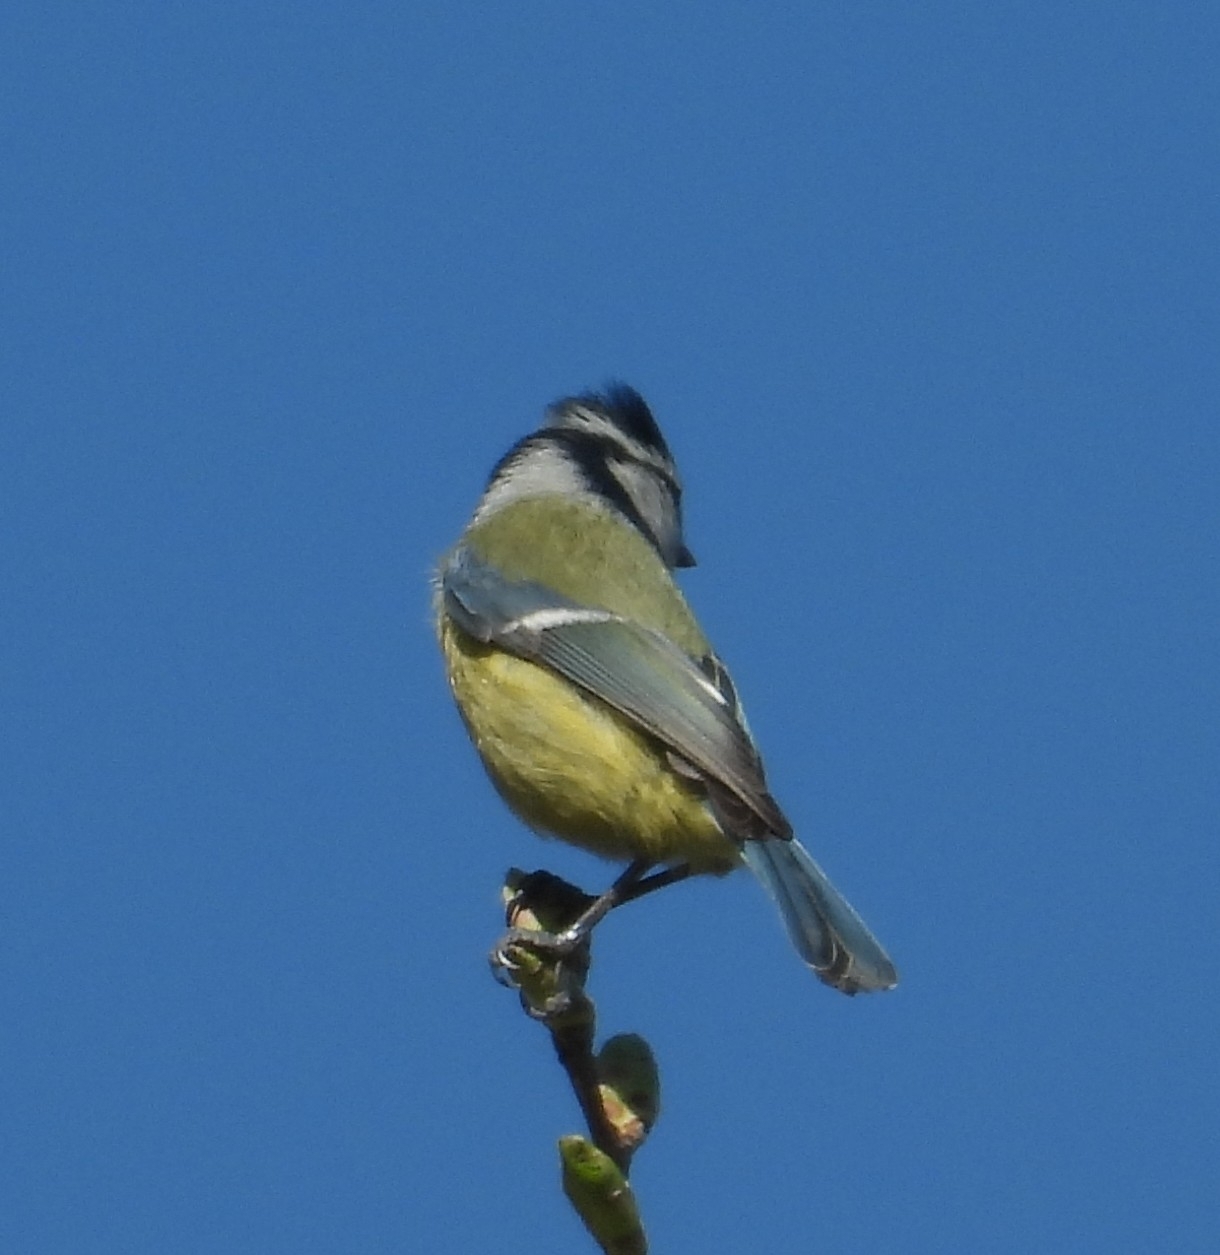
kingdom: Animalia
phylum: Chordata
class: Aves
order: Passeriformes
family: Paridae
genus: Cyanistes
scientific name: Cyanistes caeruleus
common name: Eurasian blue tit
